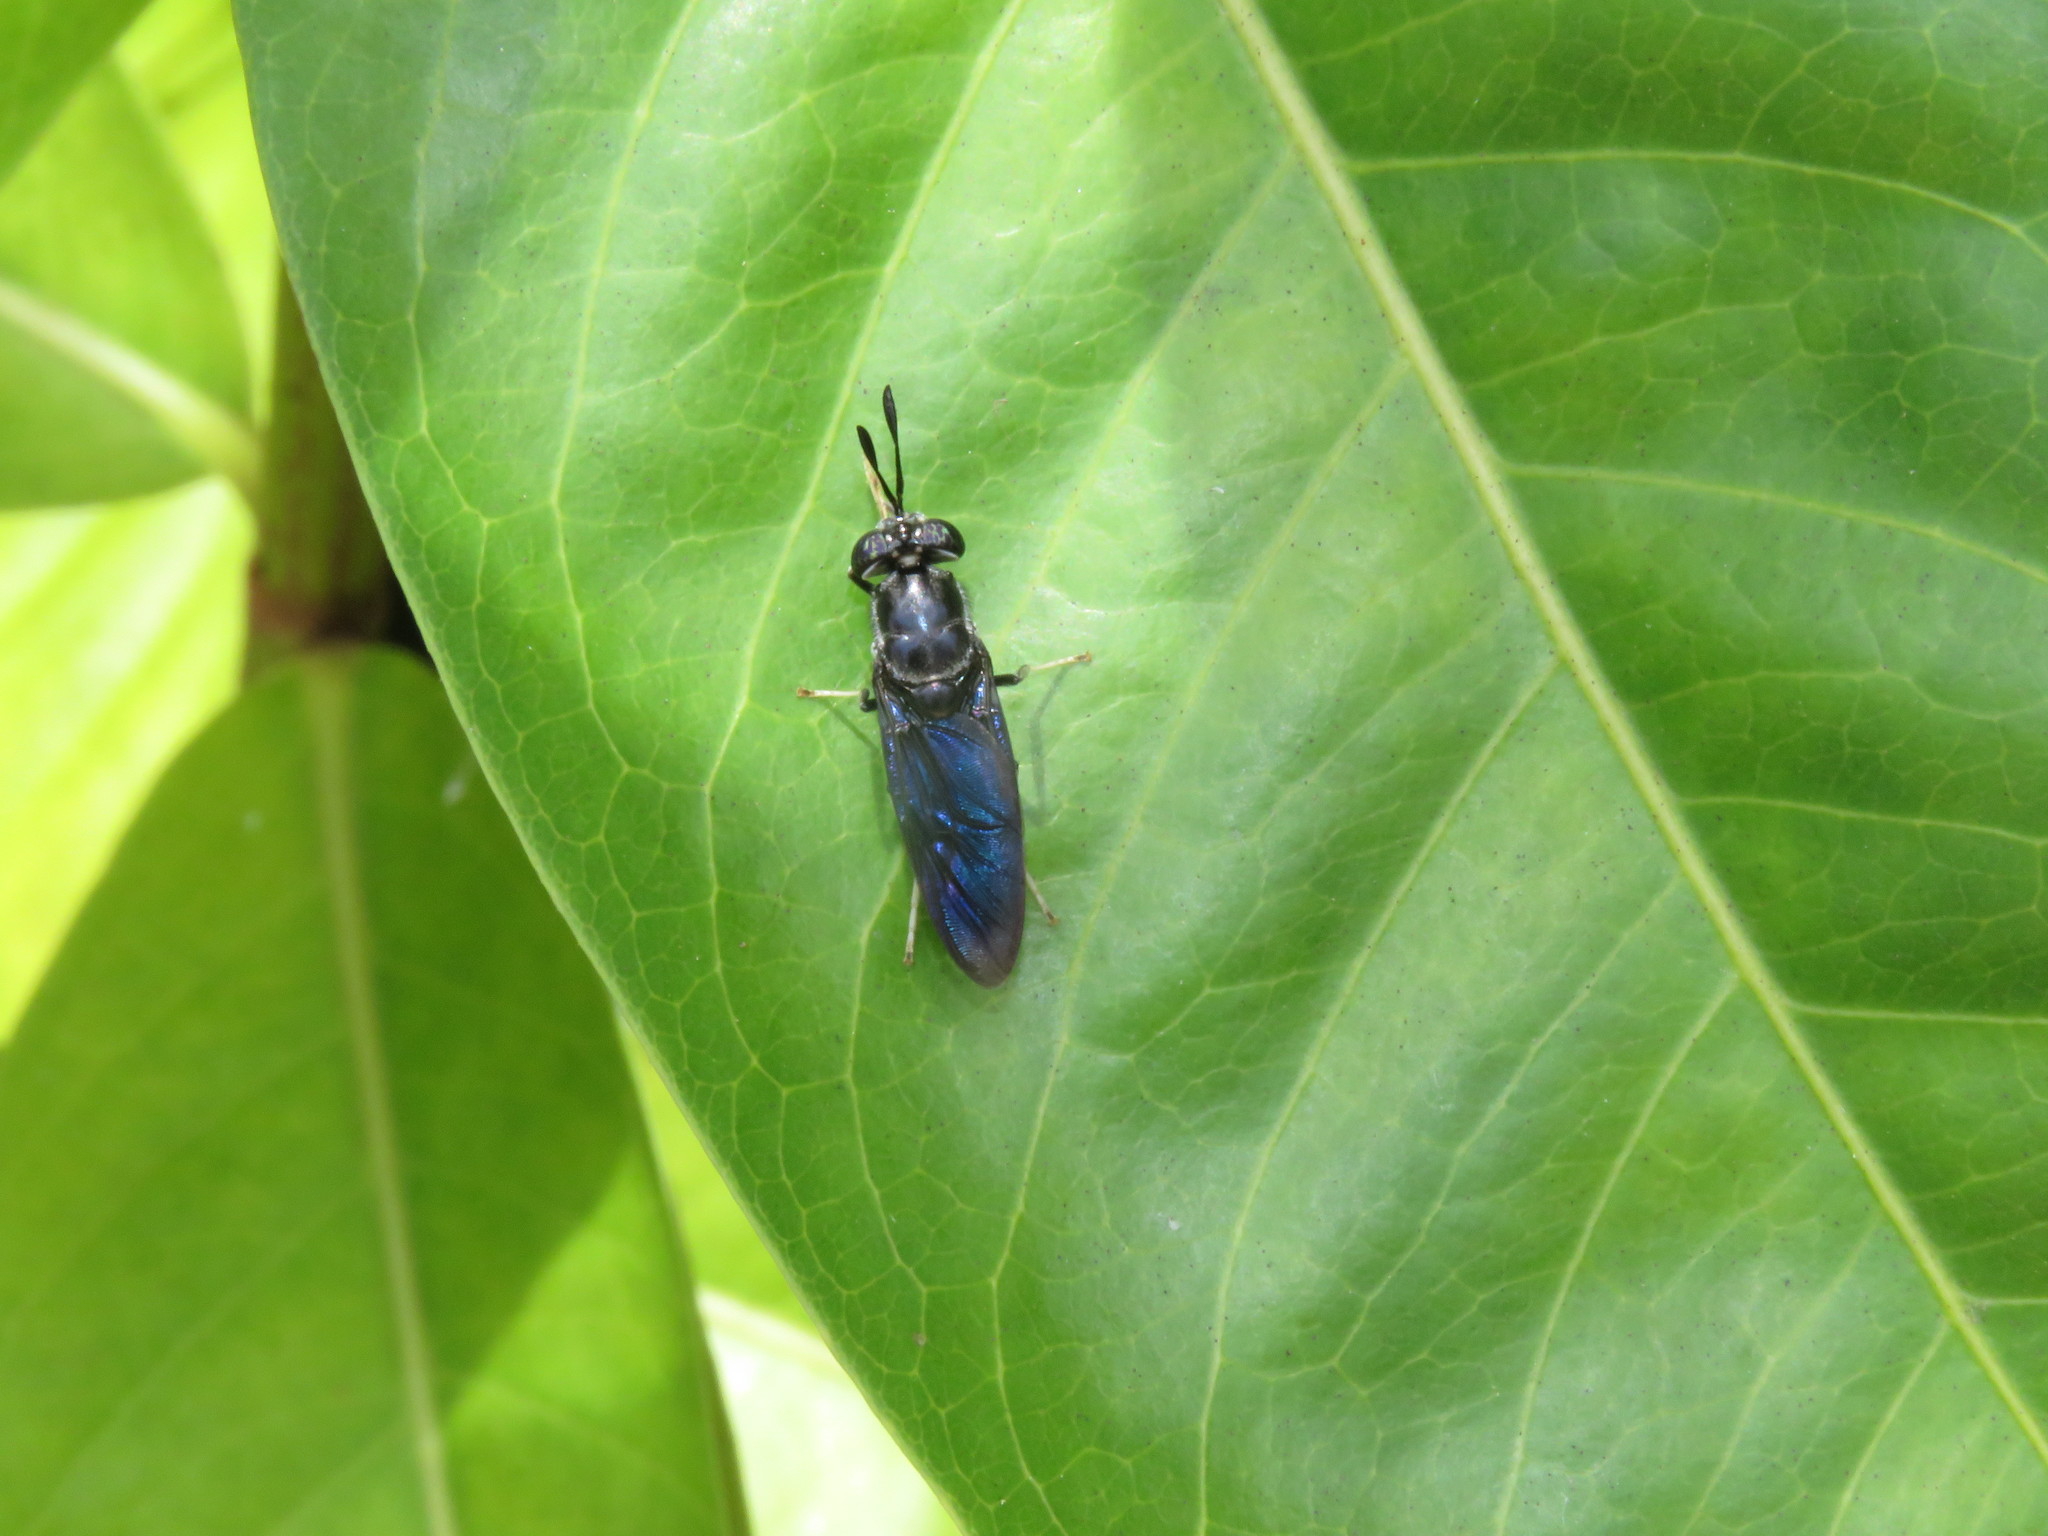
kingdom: Animalia
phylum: Arthropoda
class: Insecta
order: Diptera
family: Stratiomyidae
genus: Hermetia
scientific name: Hermetia illucens
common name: Black soldier fly
